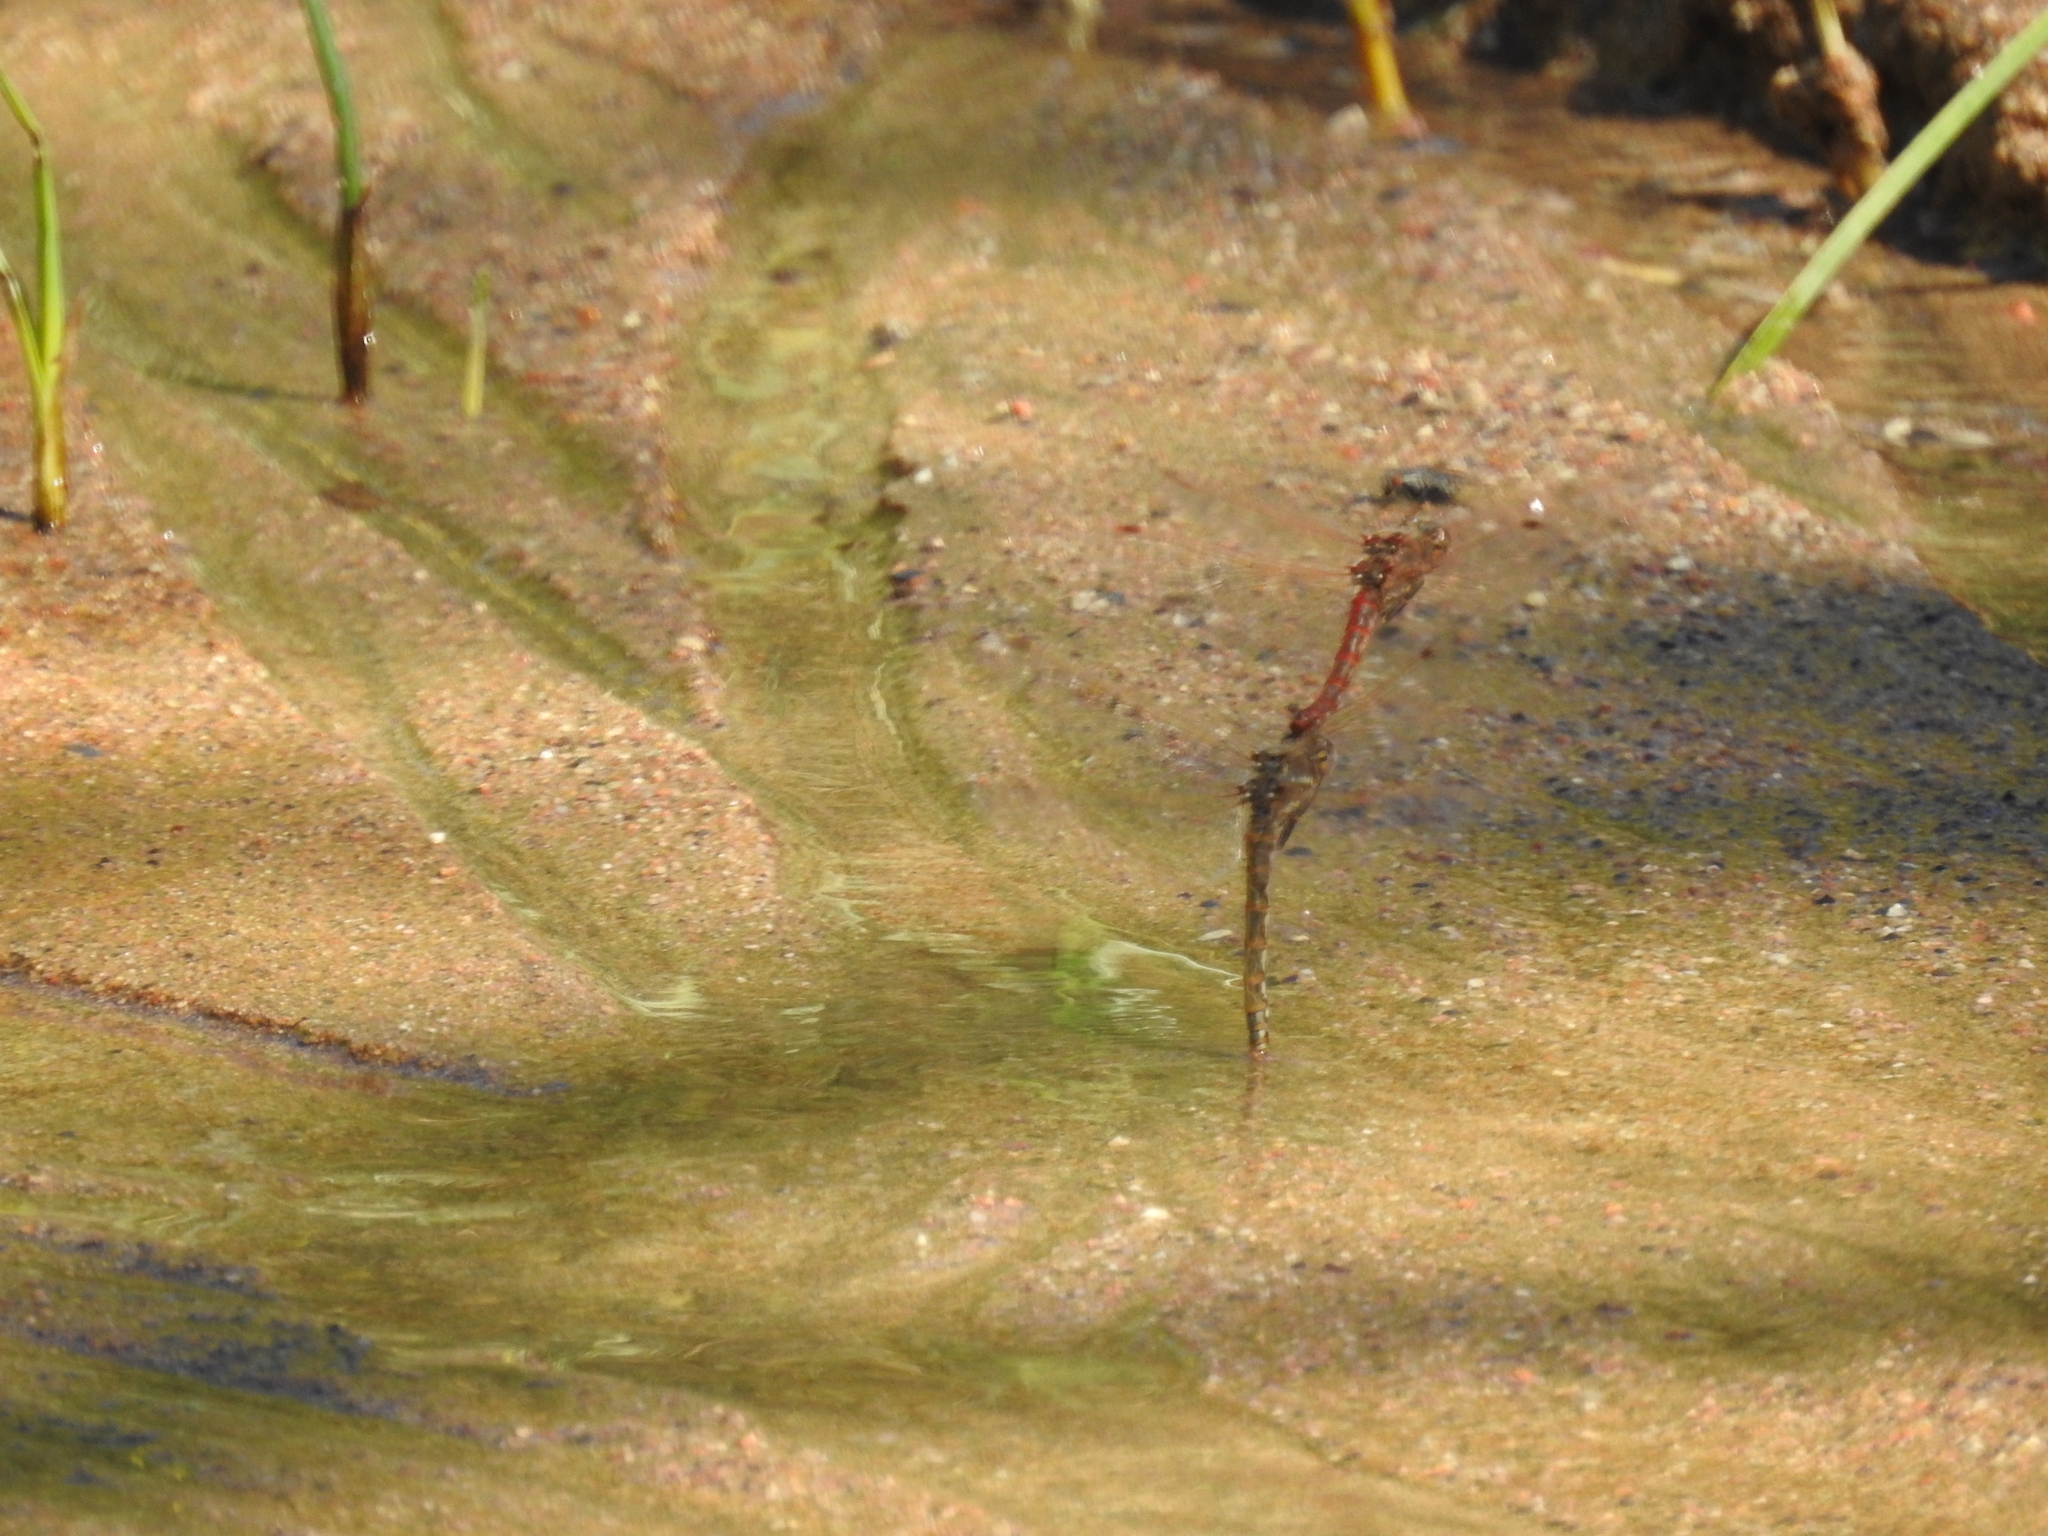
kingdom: Animalia
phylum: Arthropoda
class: Insecta
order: Odonata
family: Libellulidae
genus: Sympetrum
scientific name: Sympetrum corruptum
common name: Variegated meadowhawk
